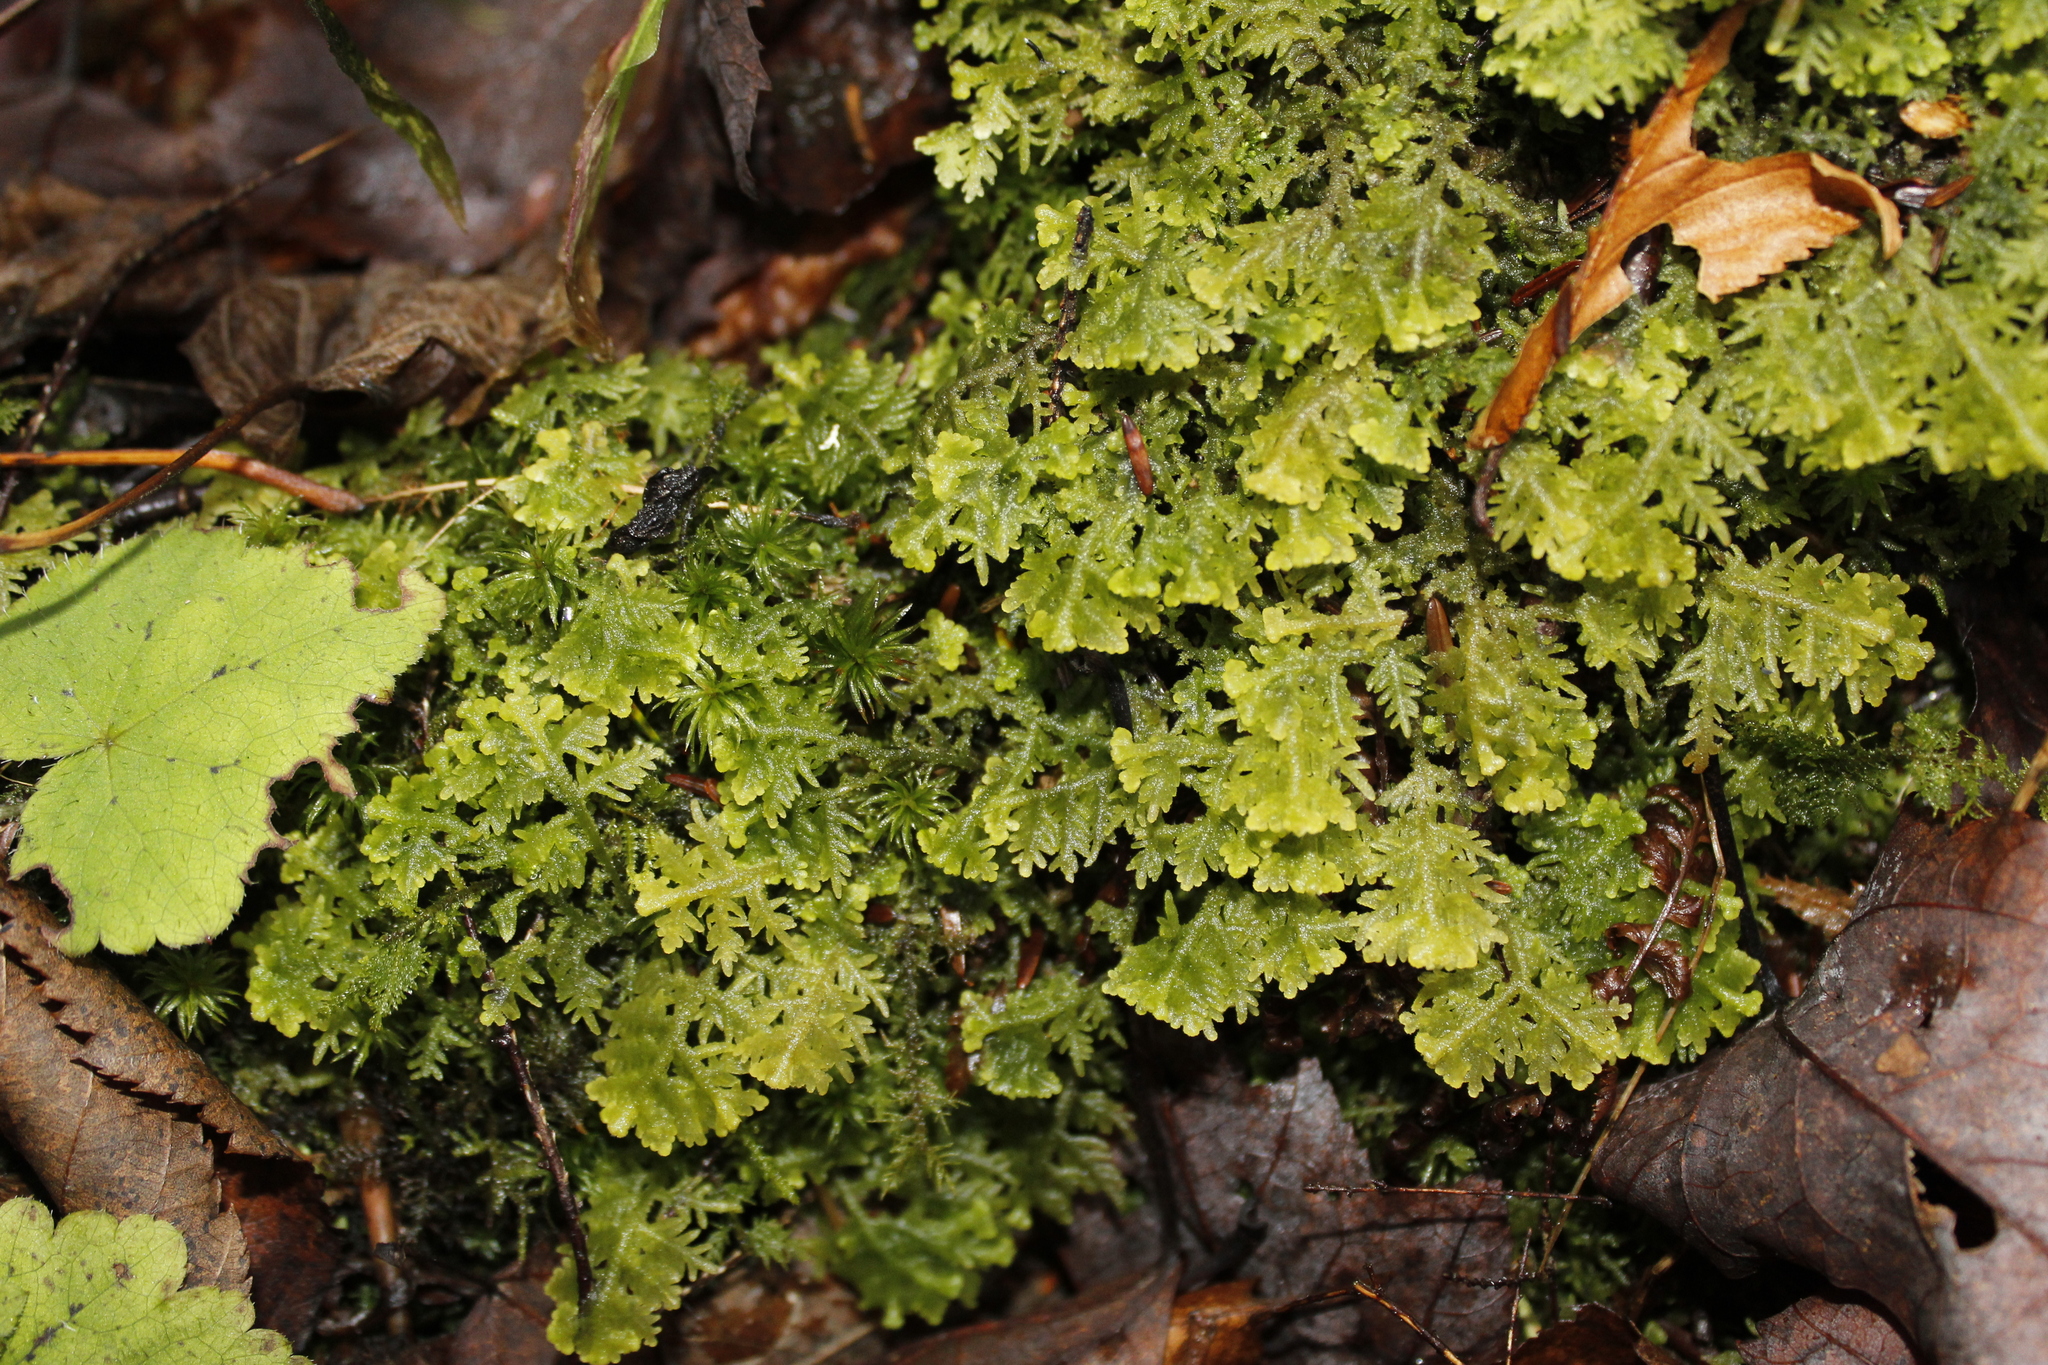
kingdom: Plantae
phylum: Marchantiophyta
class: Jungermanniopsida
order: Jungermanniales
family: Trichocoleaceae
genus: Trichocolea
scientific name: Trichocolea tomentella
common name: Woolly liverwort
